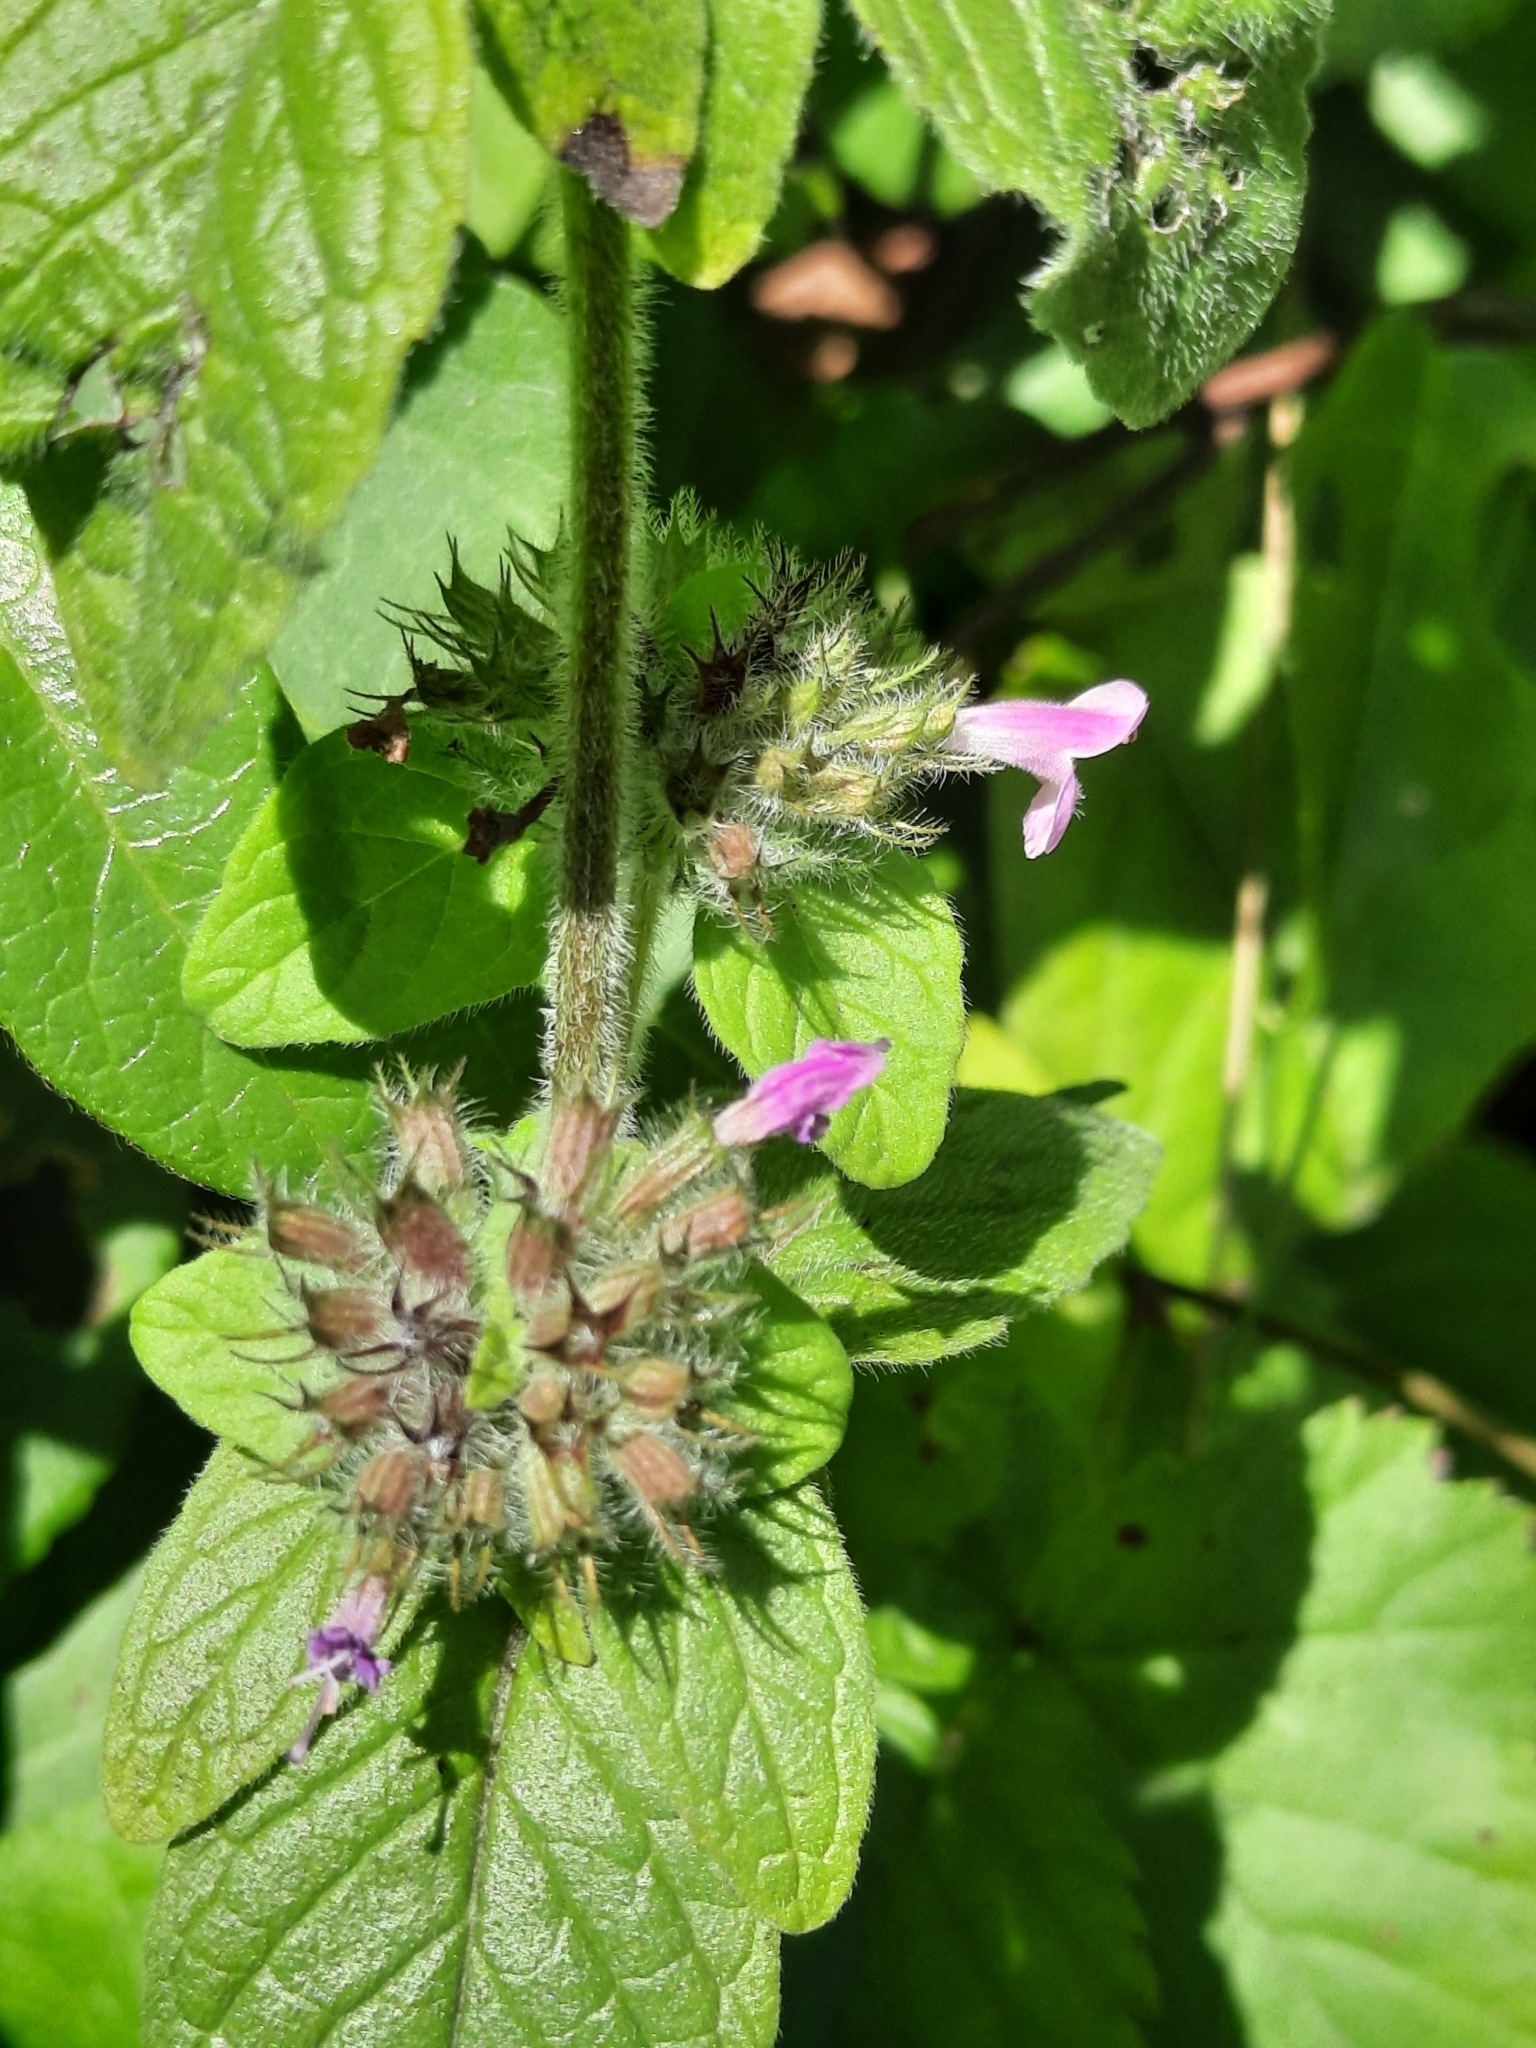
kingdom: Plantae
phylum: Tracheophyta
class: Magnoliopsida
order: Lamiales
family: Lamiaceae
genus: Clinopodium
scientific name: Clinopodium vulgare
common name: Wild basil
